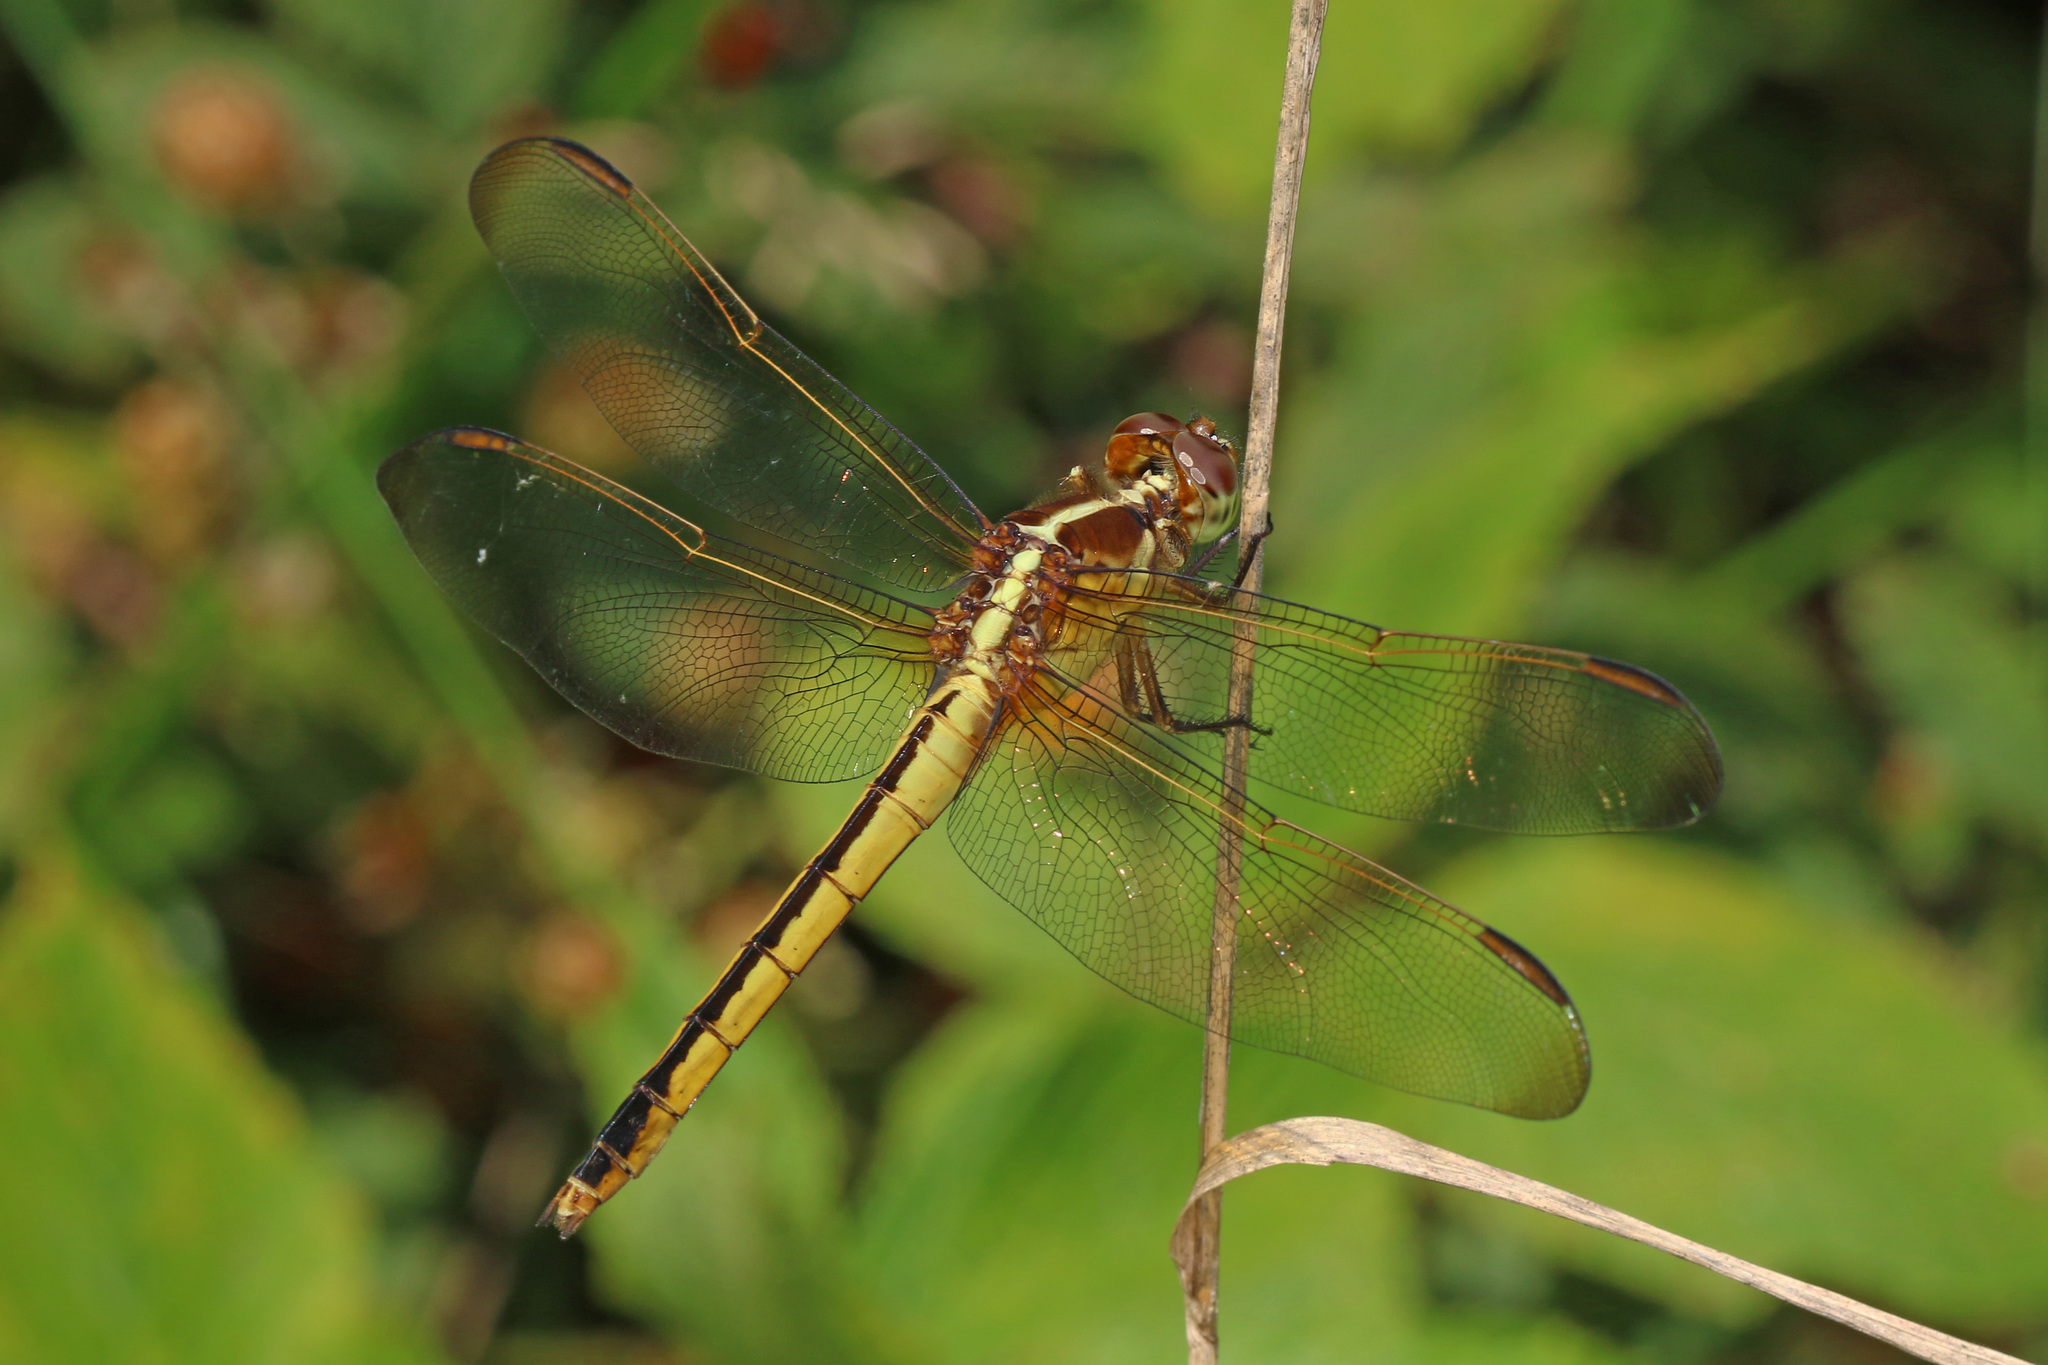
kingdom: Animalia
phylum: Arthropoda
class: Insecta
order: Odonata
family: Libellulidae
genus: Libellula
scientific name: Libellula needhami
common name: Needham's skimmer
